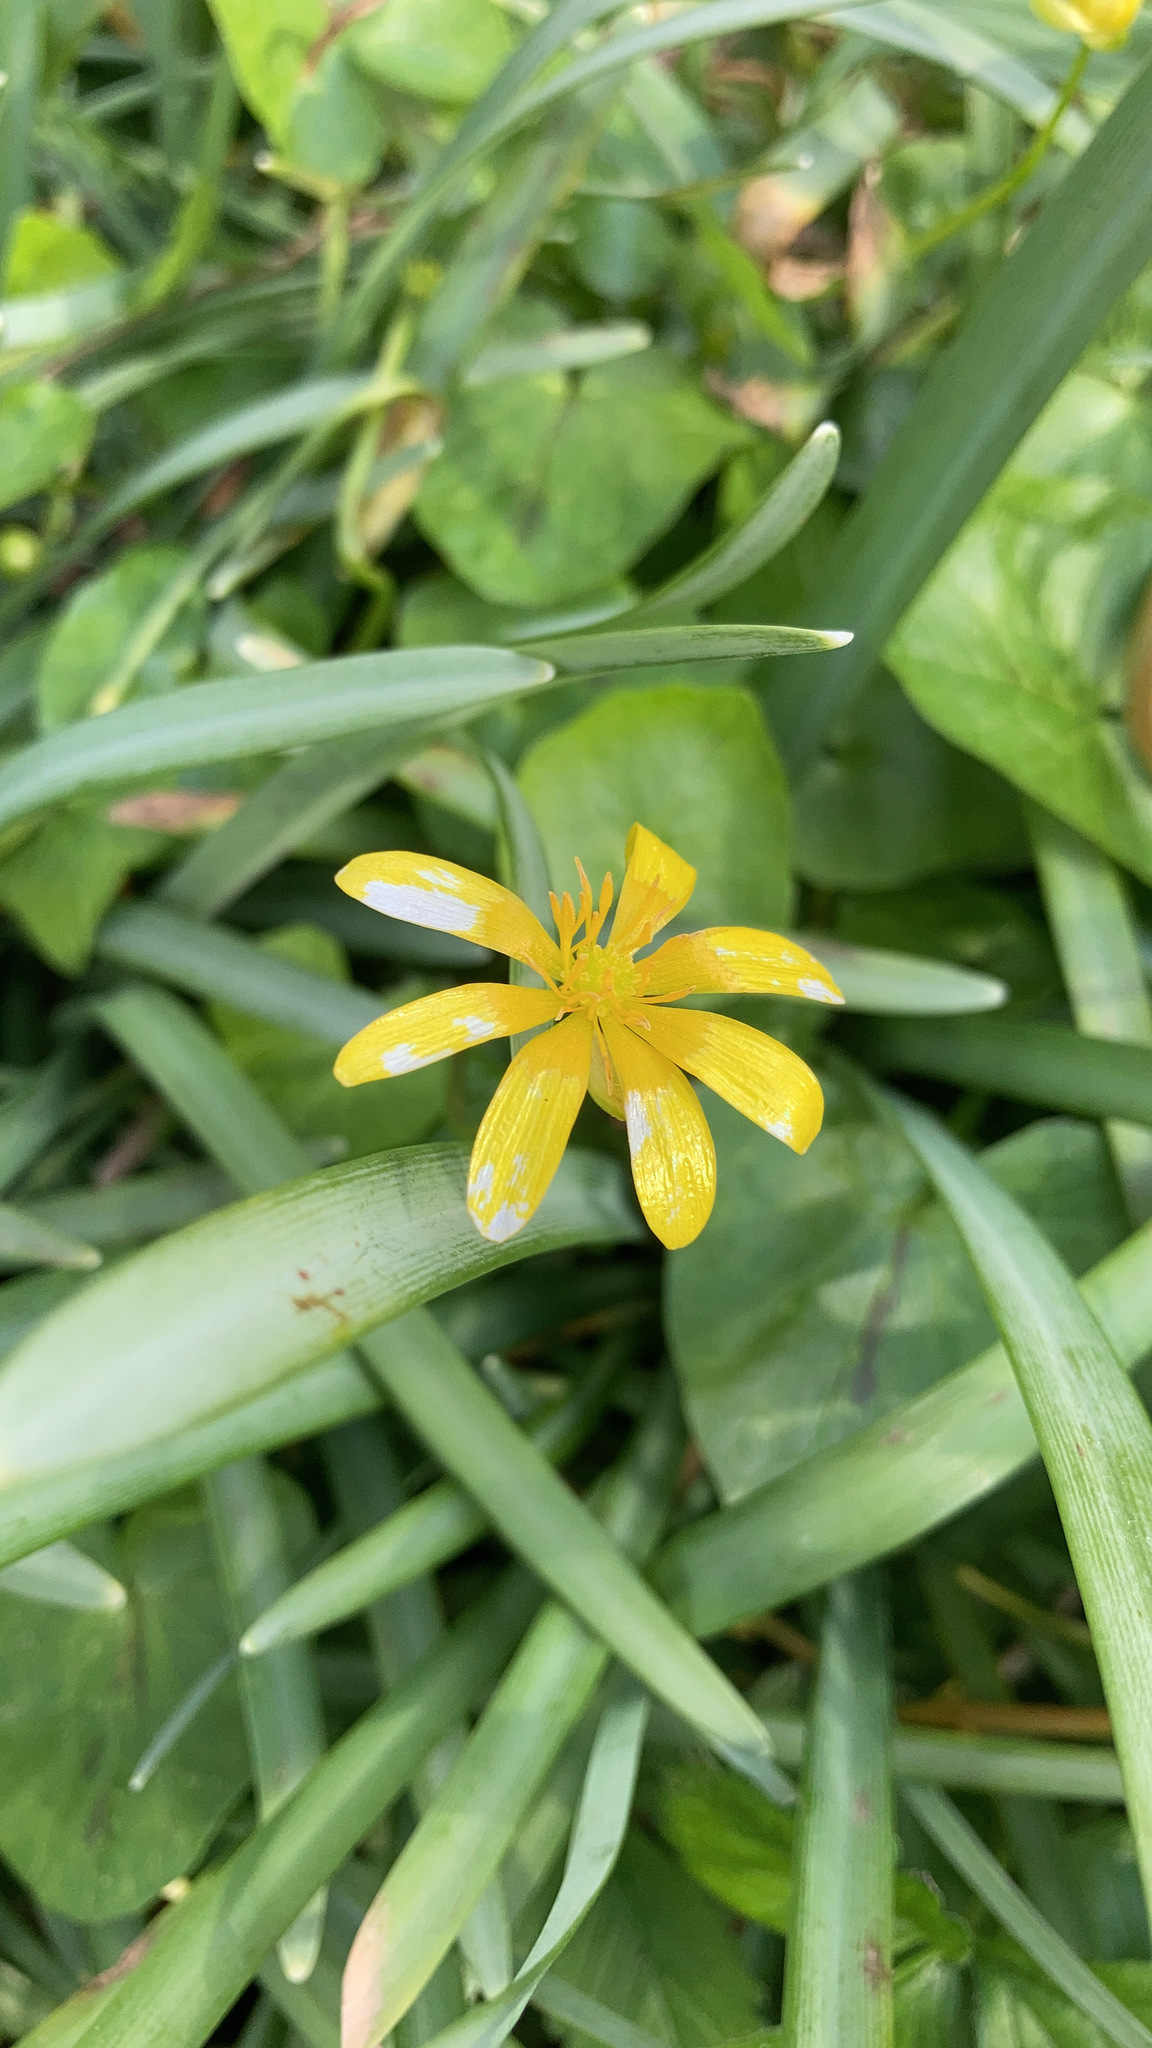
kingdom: Plantae
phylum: Tracheophyta
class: Magnoliopsida
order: Ranunculales
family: Ranunculaceae
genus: Ficaria
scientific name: Ficaria verna
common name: Lesser celandine
